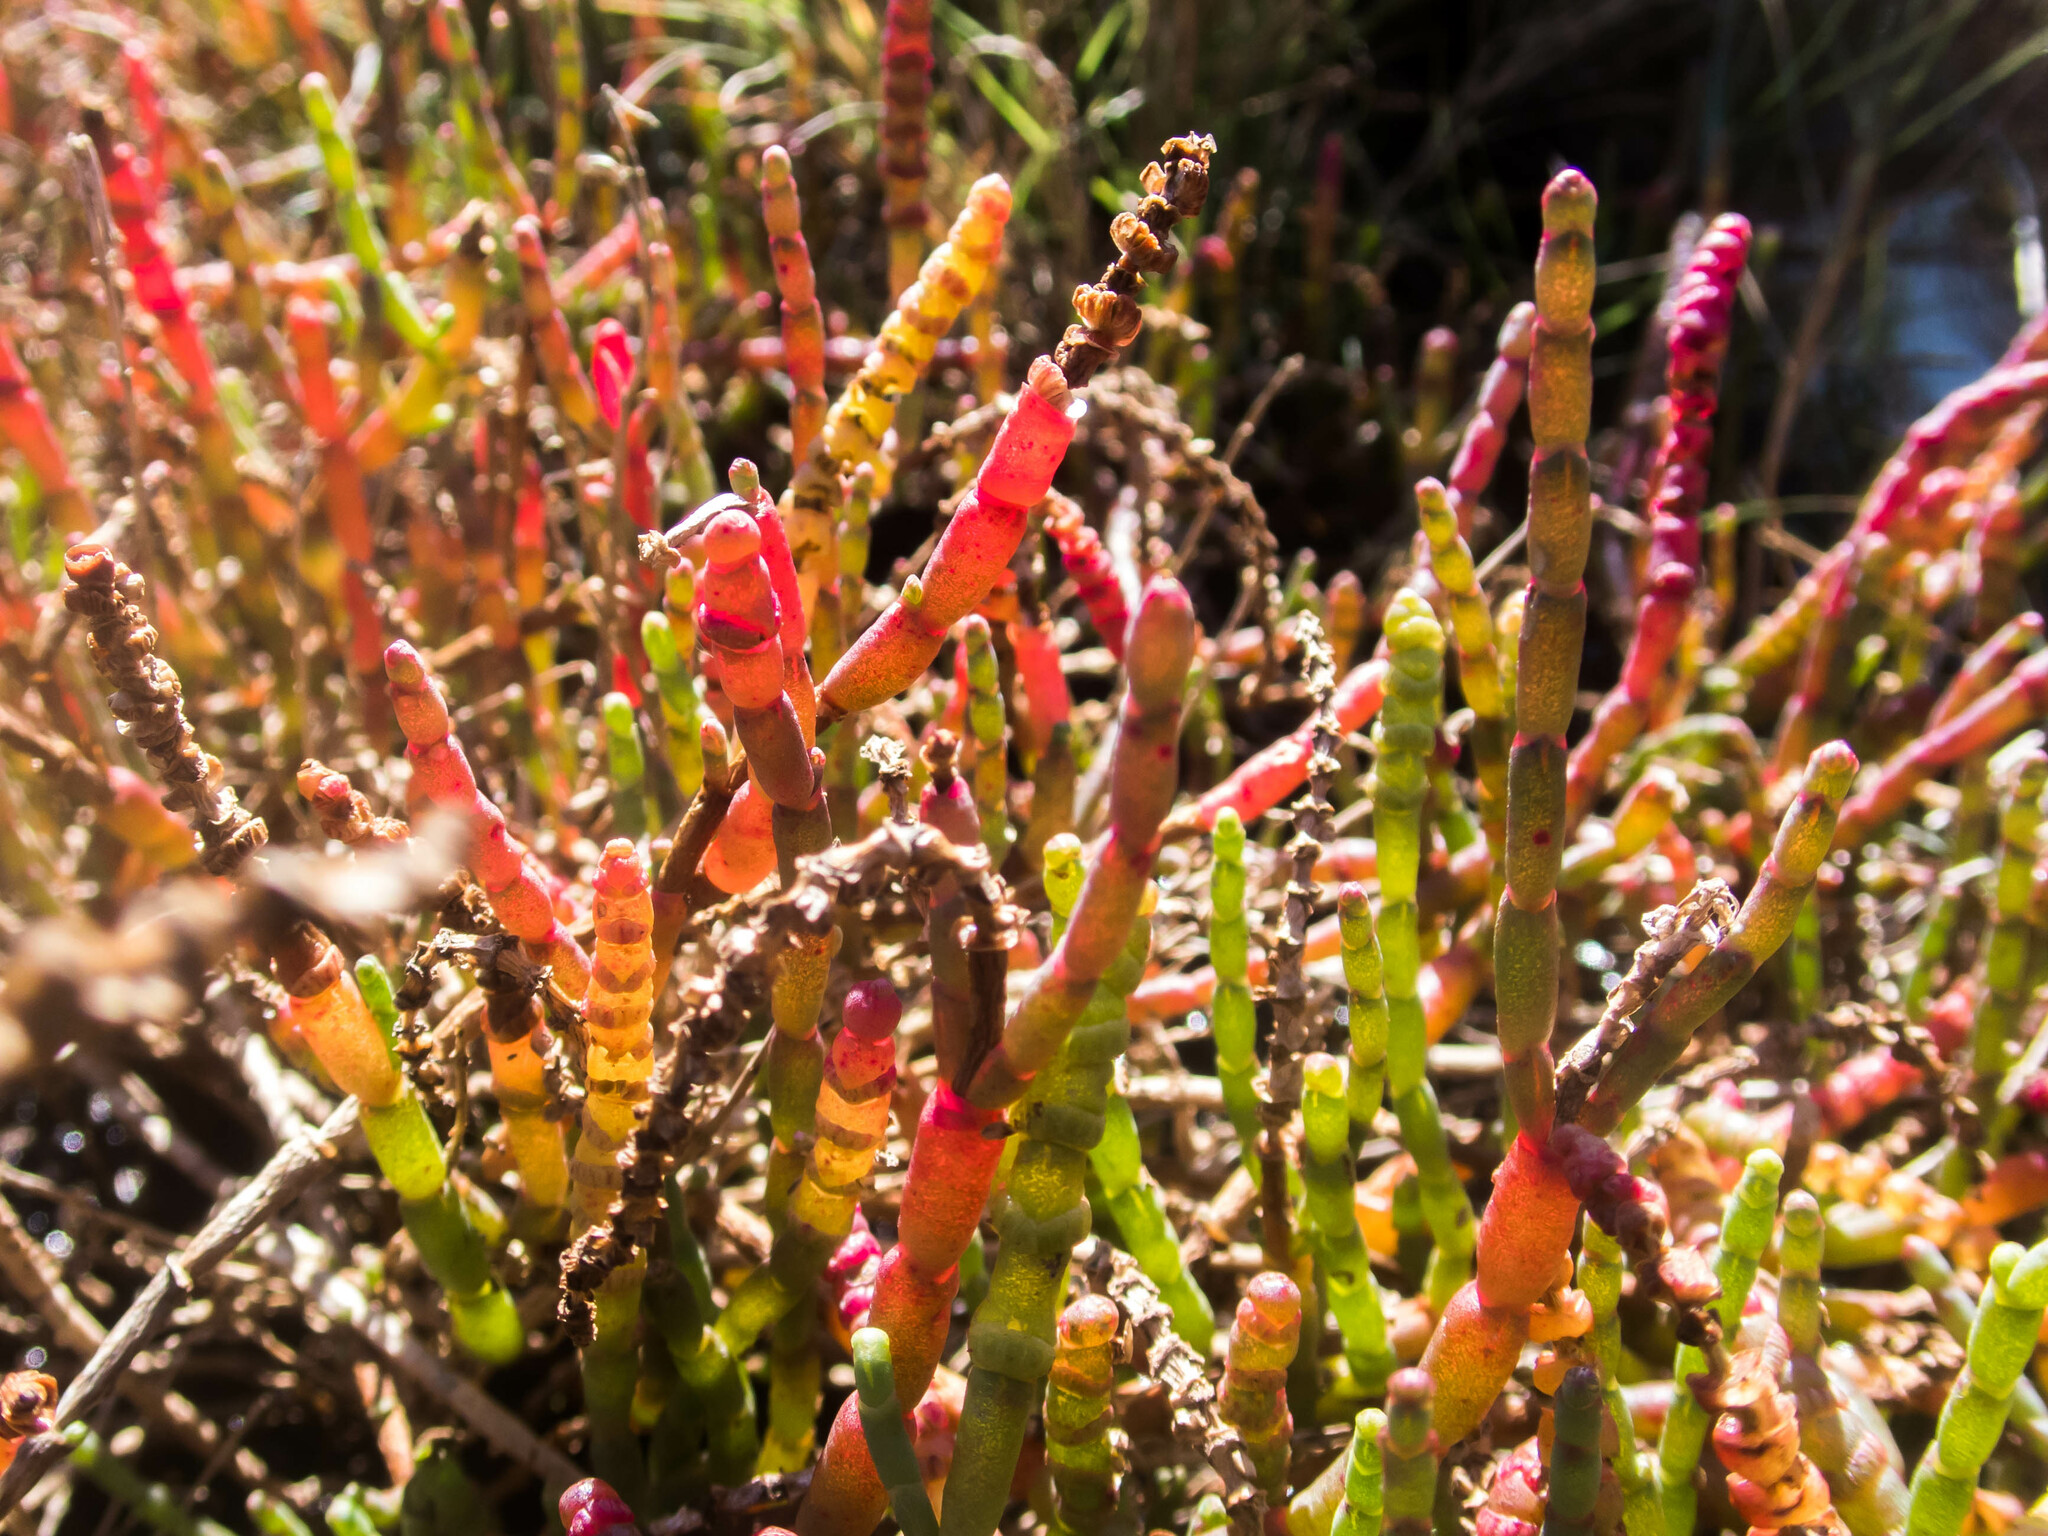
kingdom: Plantae
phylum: Tracheophyta
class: Magnoliopsida
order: Caryophyllales
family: Amaranthaceae
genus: Salicornia
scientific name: Salicornia quinqueflora
